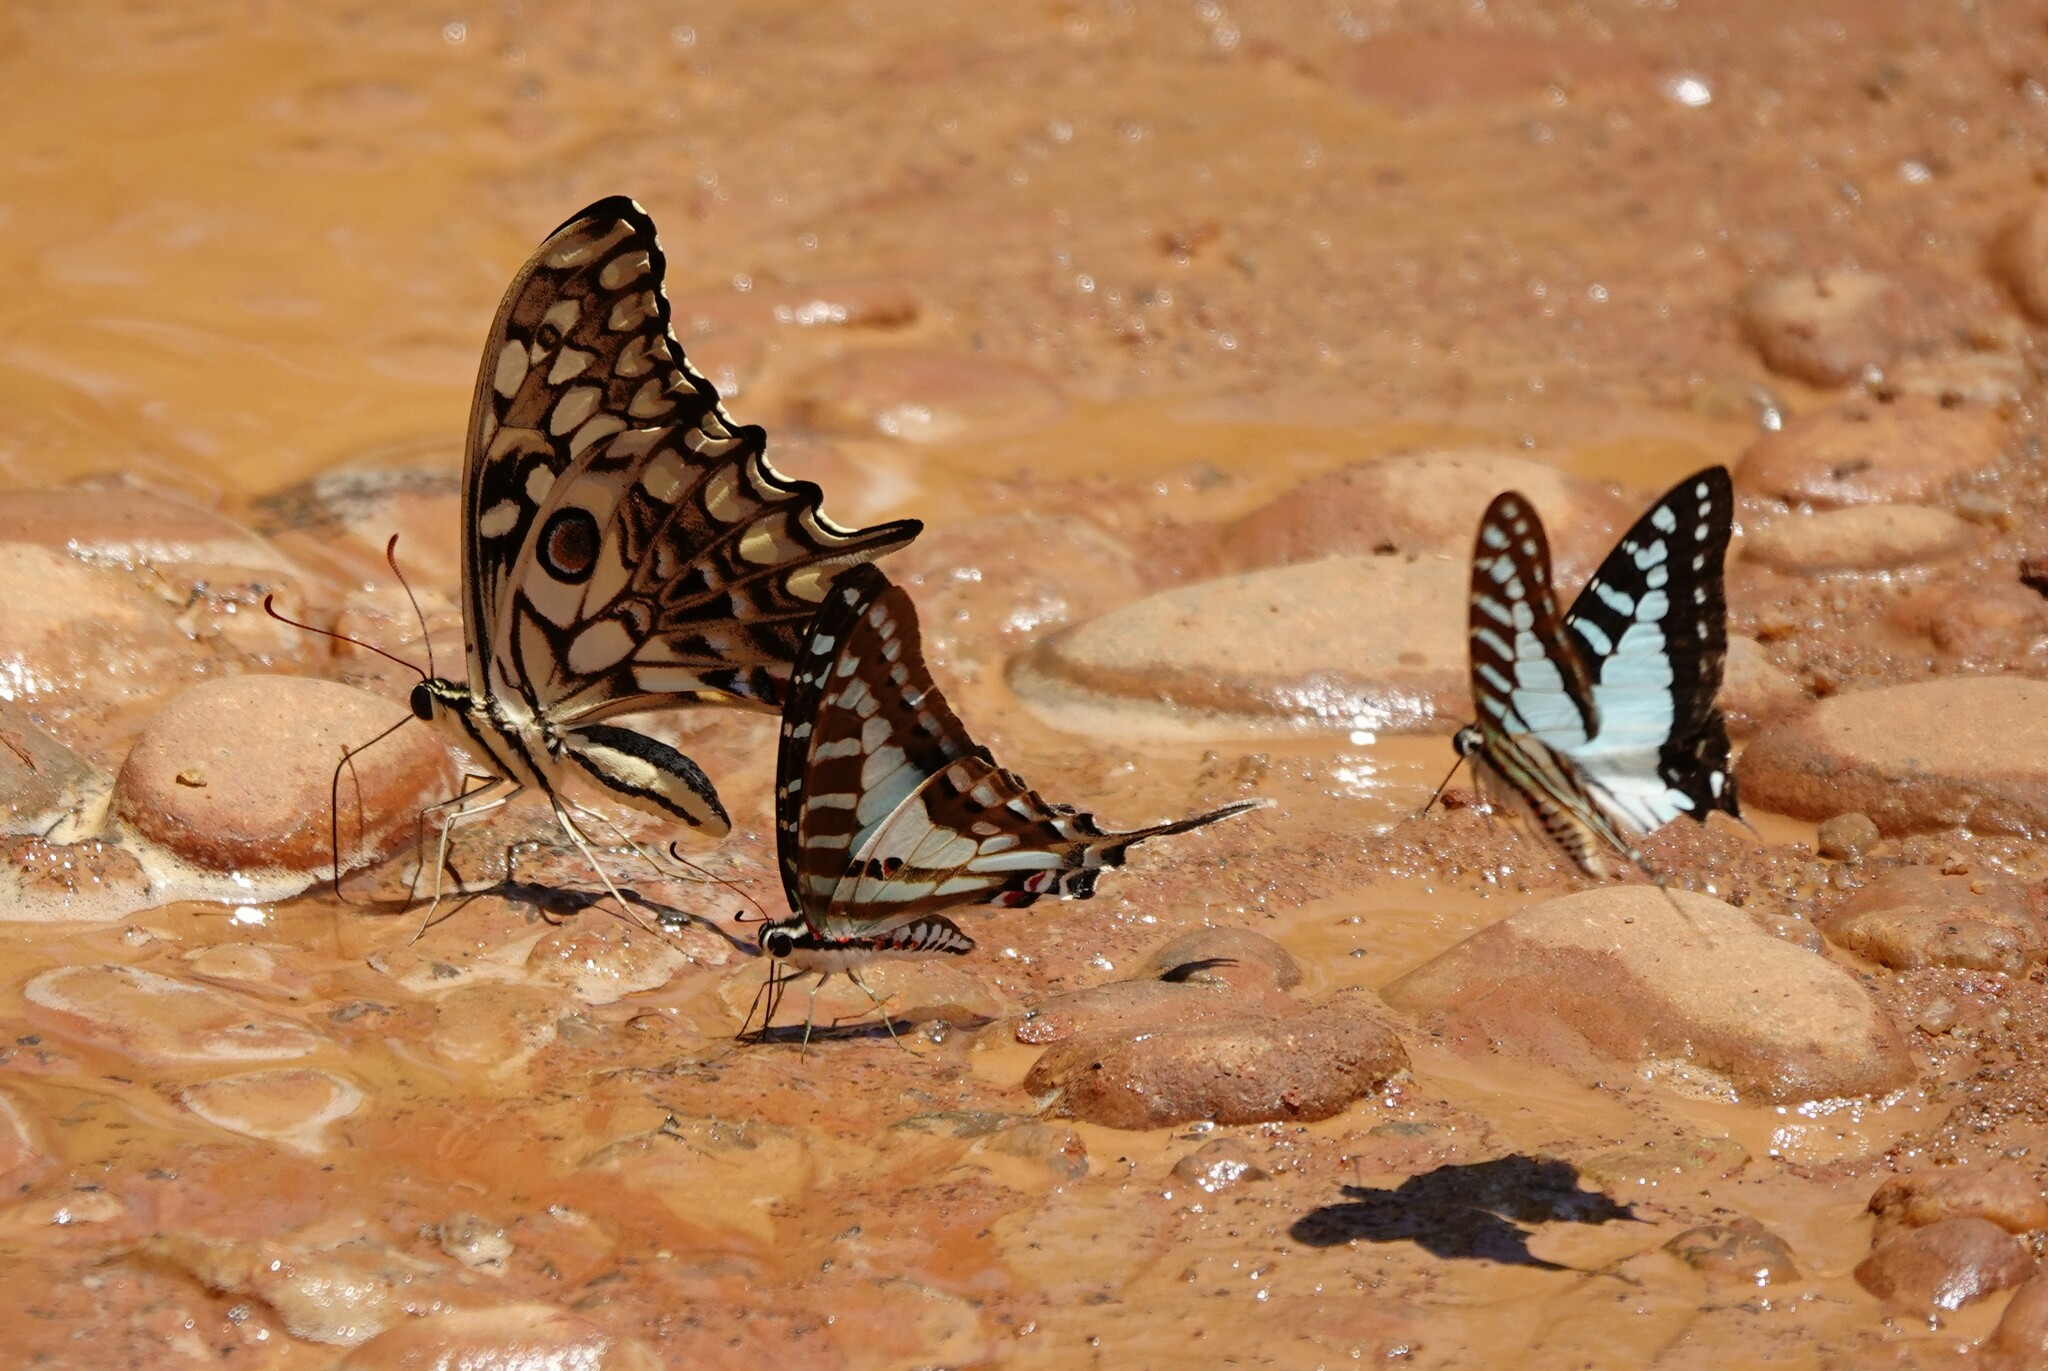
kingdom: Animalia
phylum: Arthropoda
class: Insecta
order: Lepidoptera
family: Papilionidae
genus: Graphium
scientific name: Graphium evombar
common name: Madagascan striped swordtail
